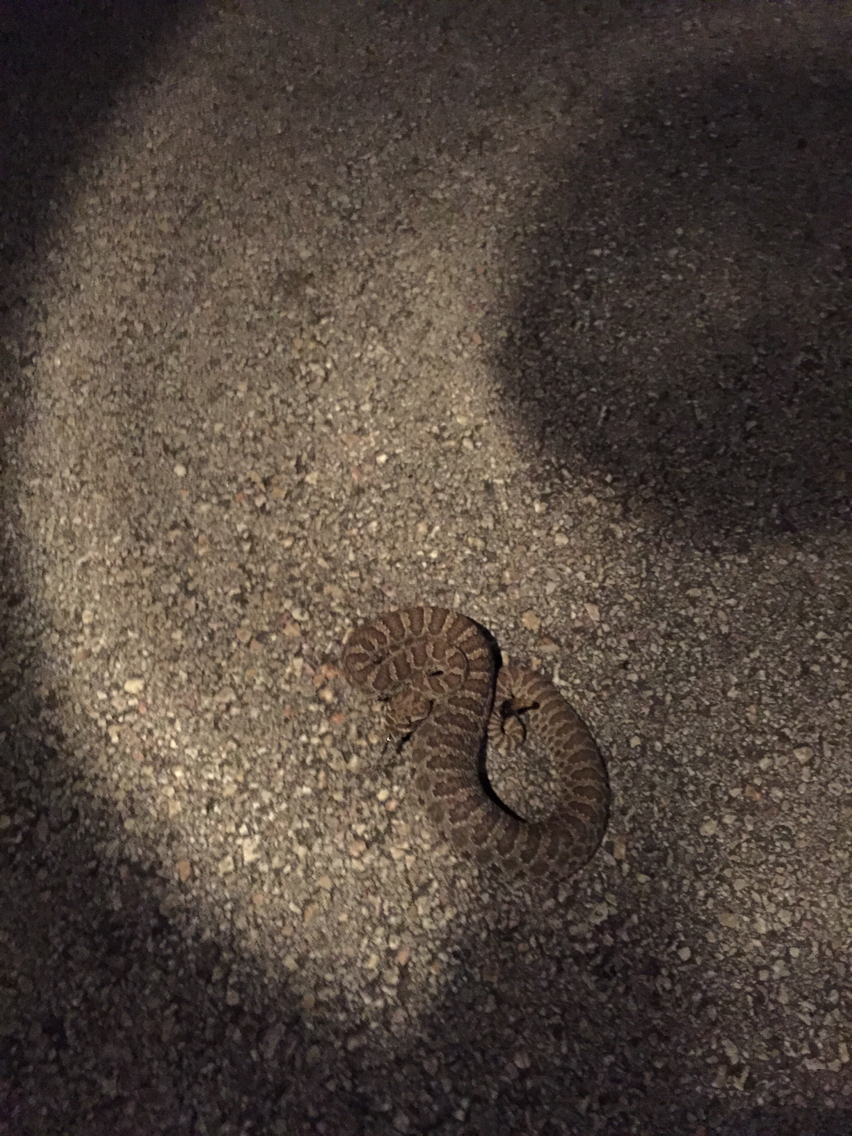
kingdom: Animalia
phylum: Chordata
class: Squamata
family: Viperidae
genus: Crotalus
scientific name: Crotalus viridis
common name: Prairie rattlesnake
